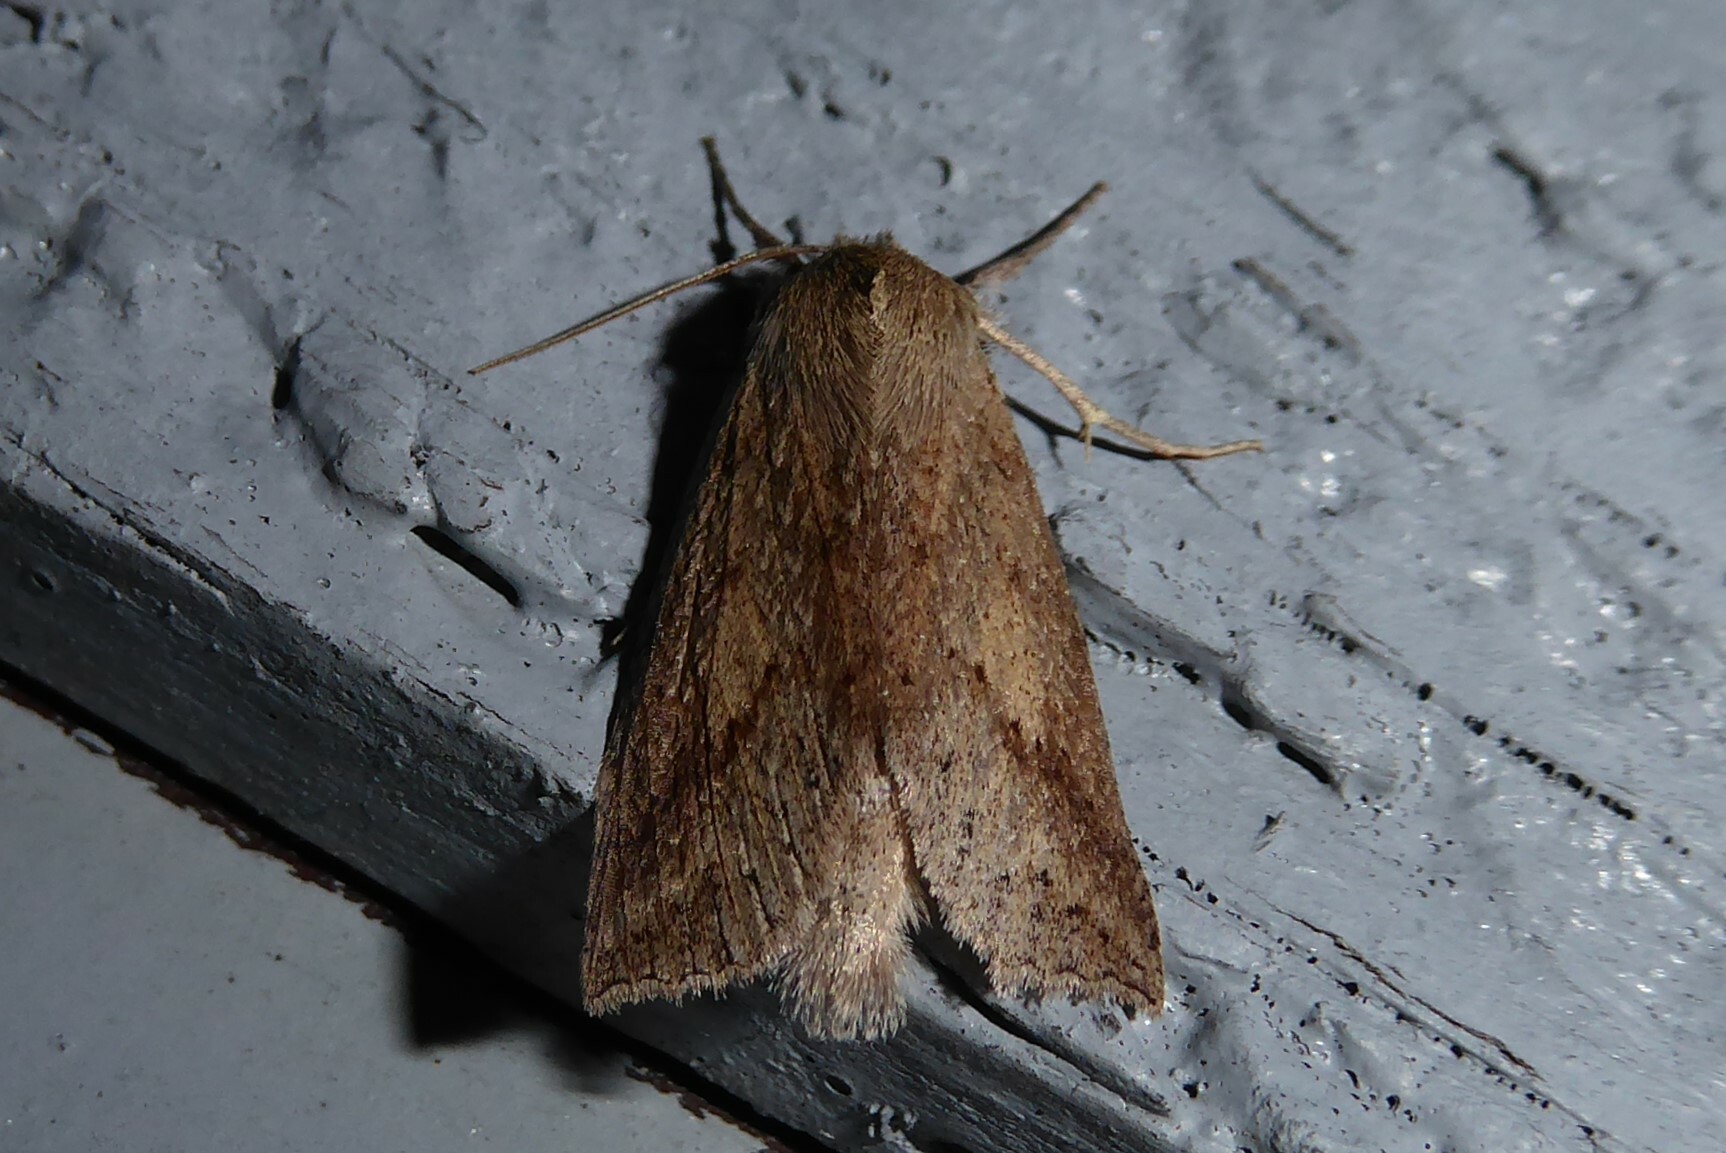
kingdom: Animalia
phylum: Arthropoda
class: Insecta
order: Lepidoptera
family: Geometridae
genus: Declana
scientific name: Declana leptomera
